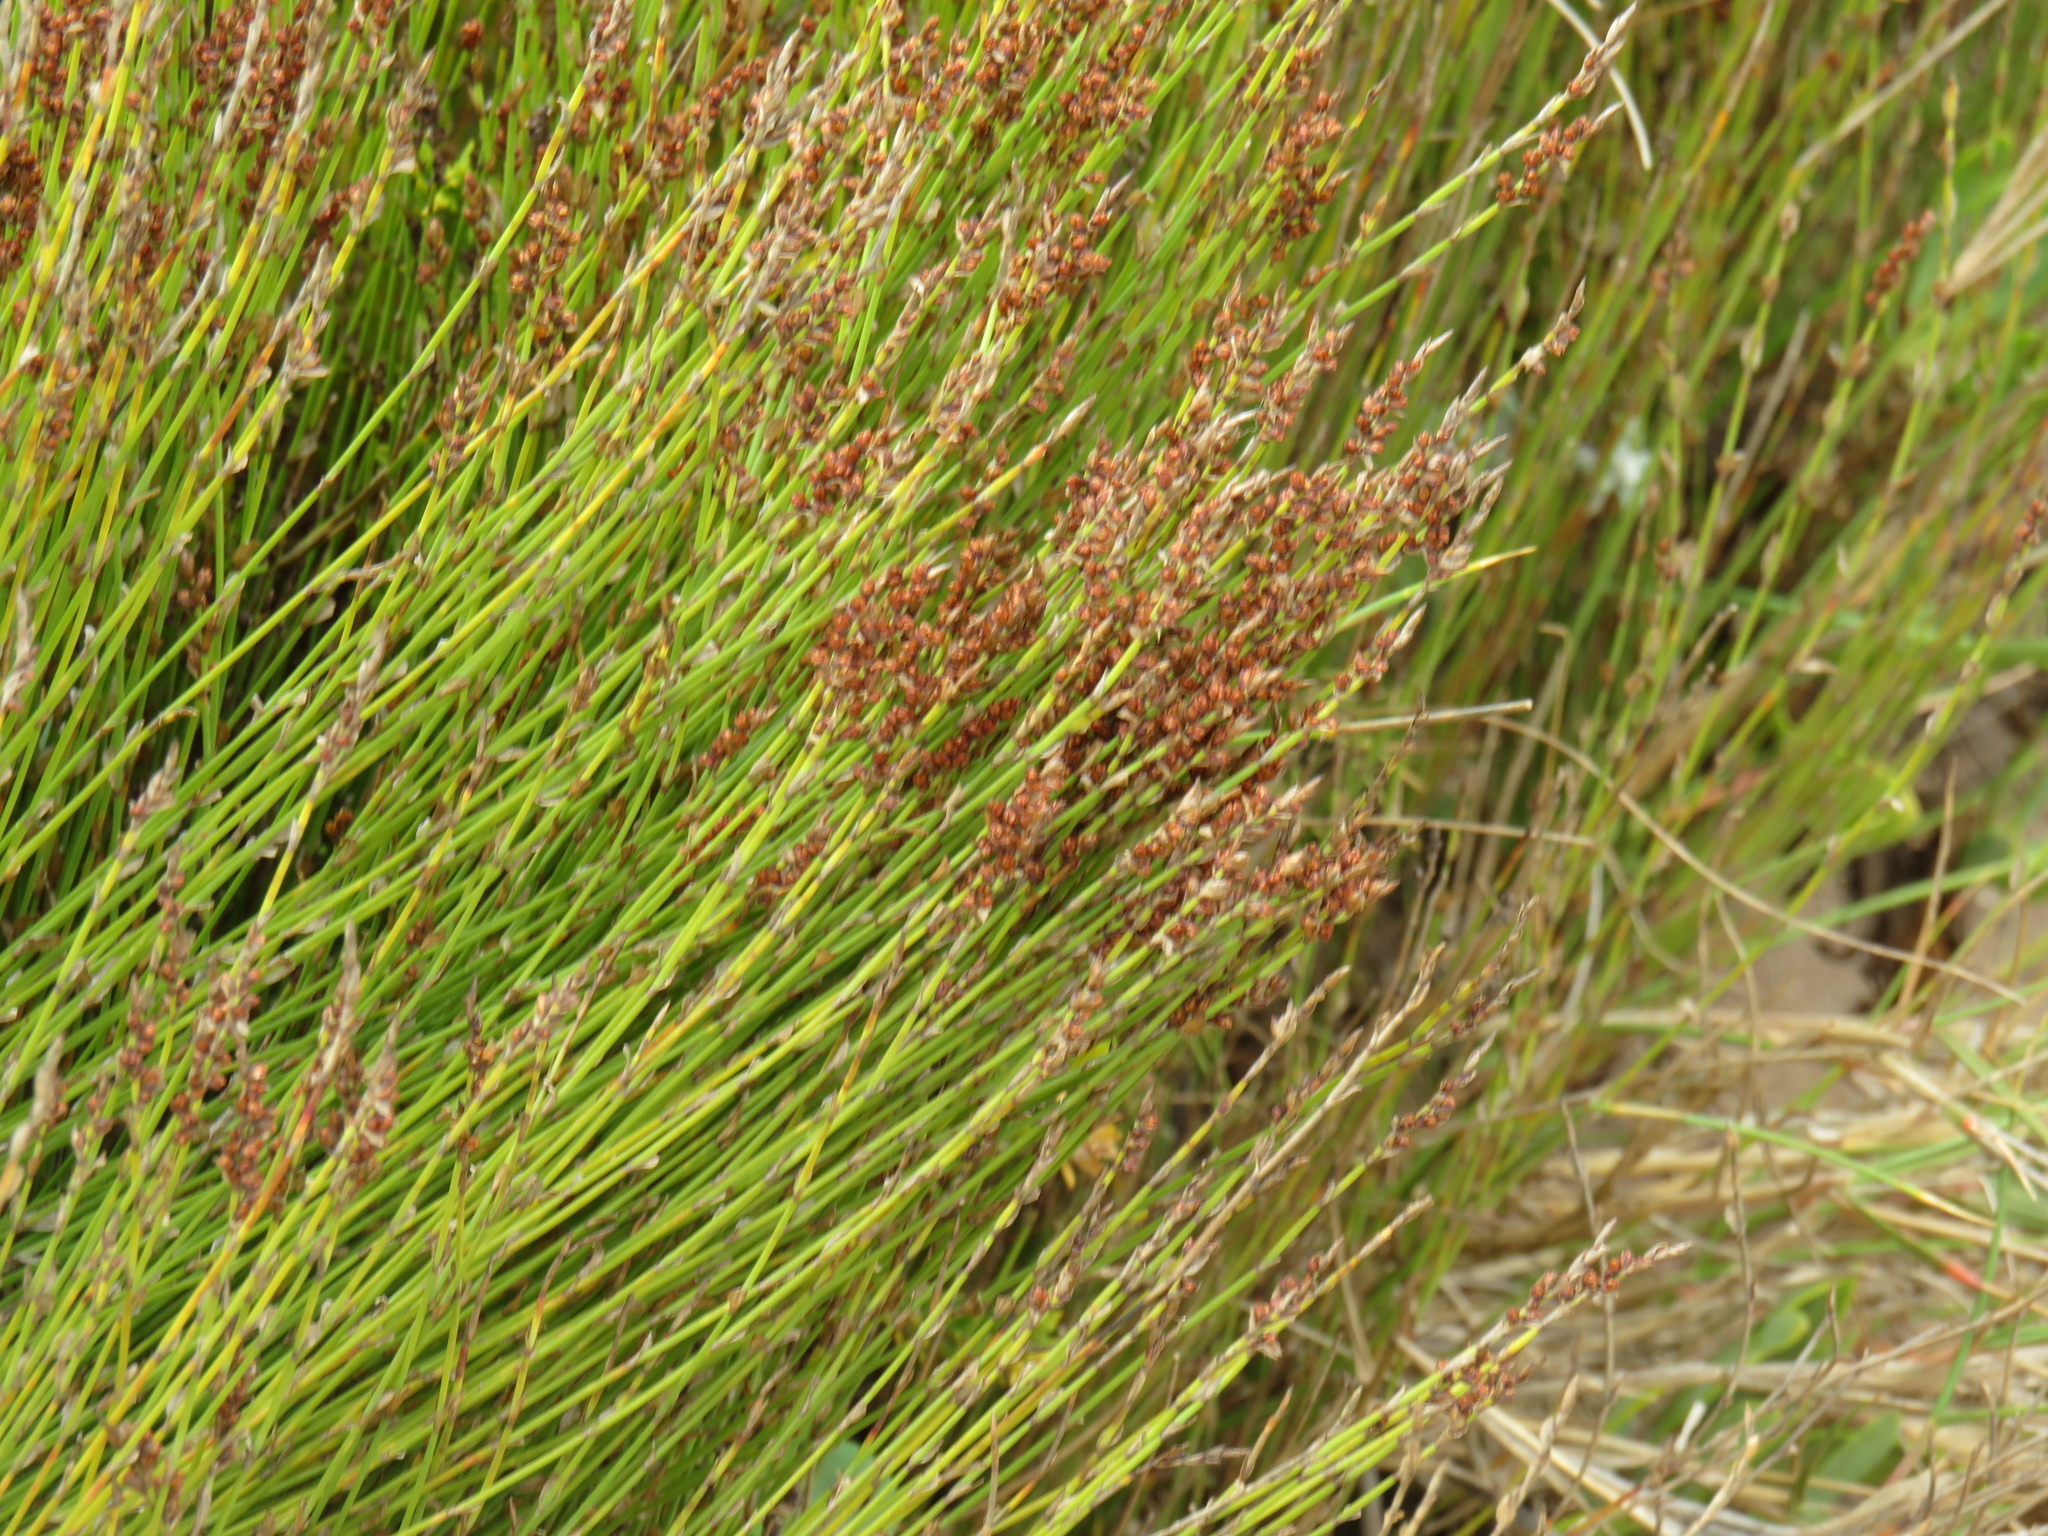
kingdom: Plantae
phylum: Tracheophyta
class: Liliopsida
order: Poales
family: Restionaceae
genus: Elegia
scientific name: Elegia microcarpa
